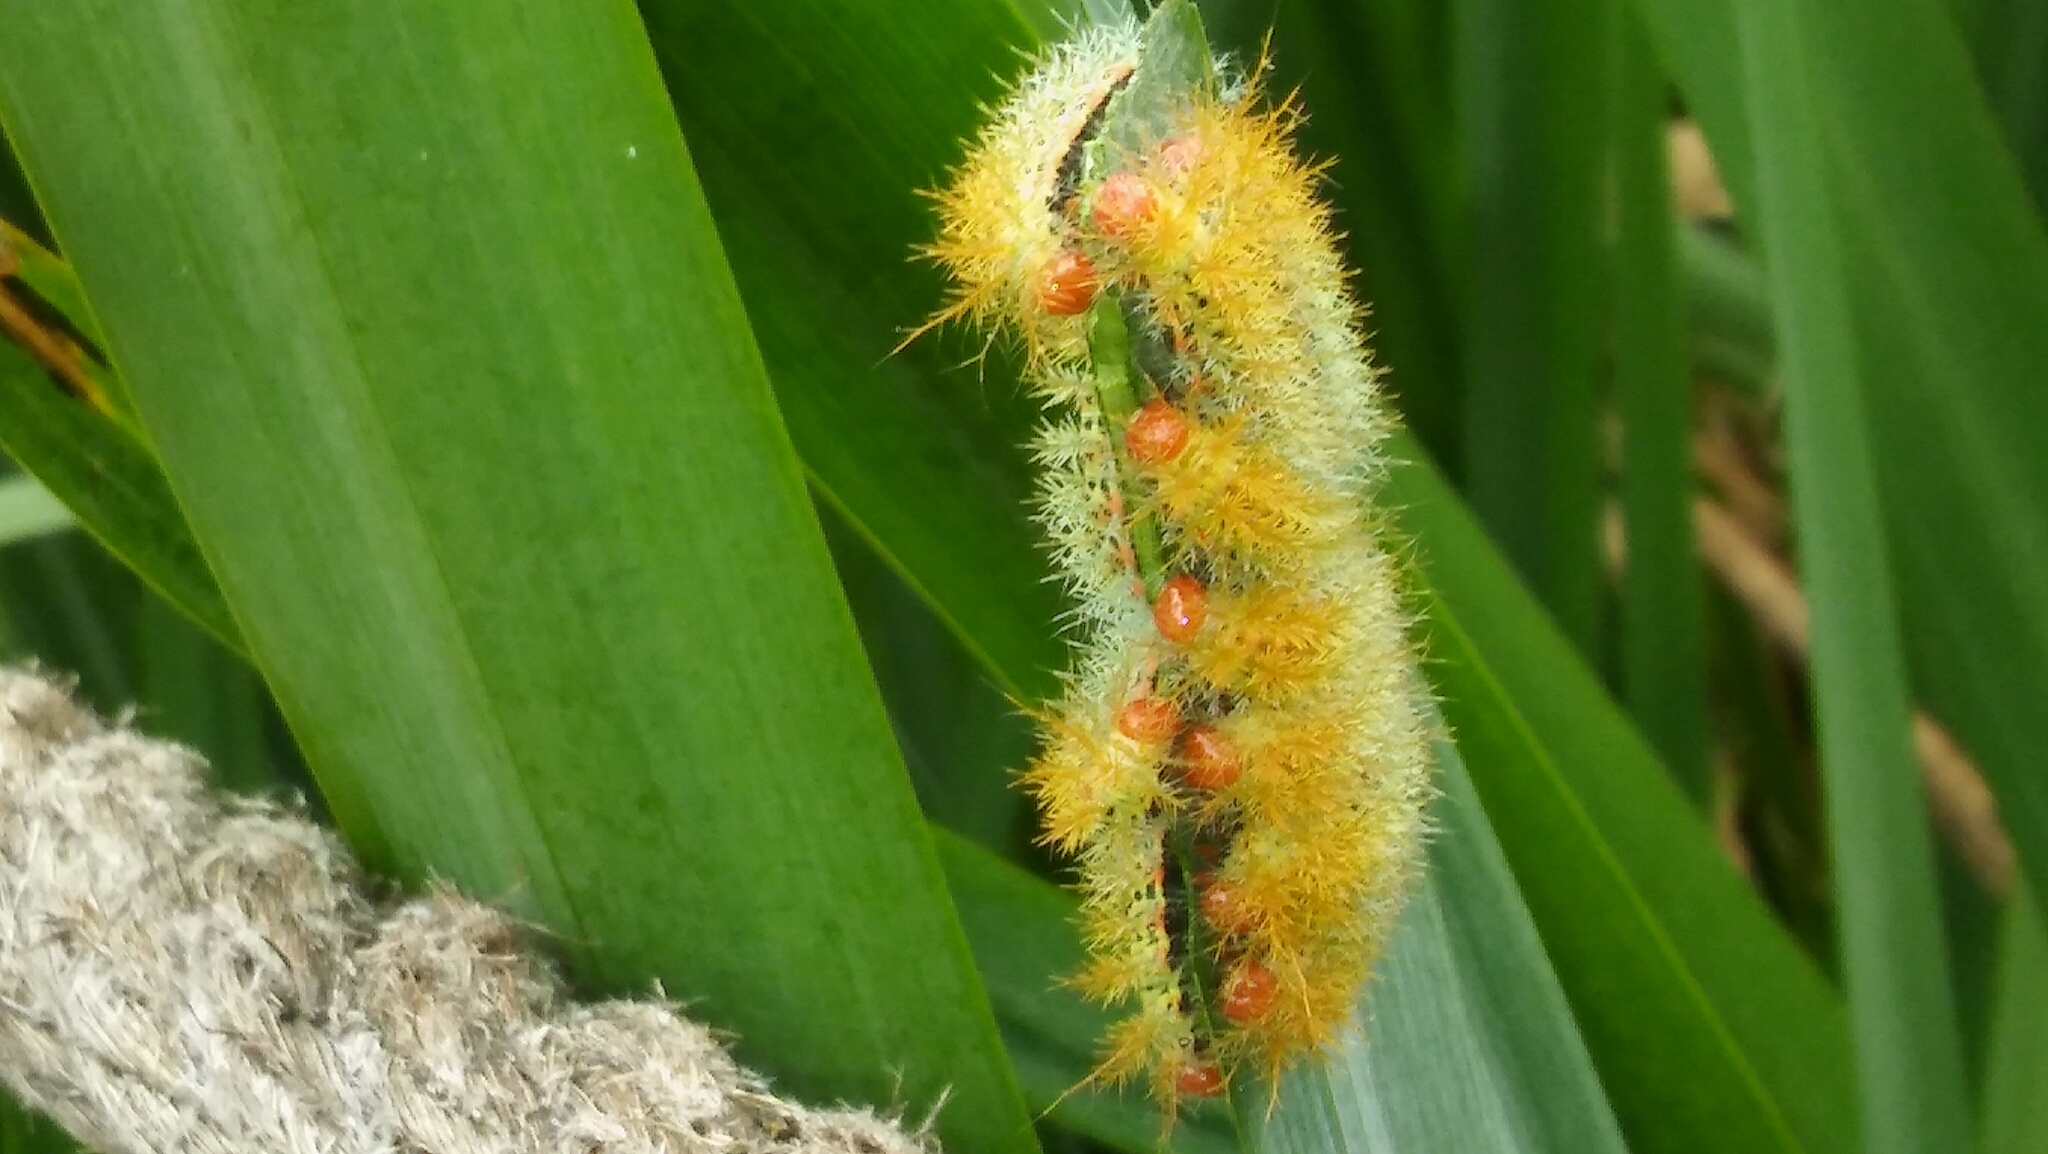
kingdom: Animalia
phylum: Arthropoda
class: Insecta
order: Lepidoptera
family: Saturniidae
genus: Pseudautomeris
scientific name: Pseudautomeris grammivora
